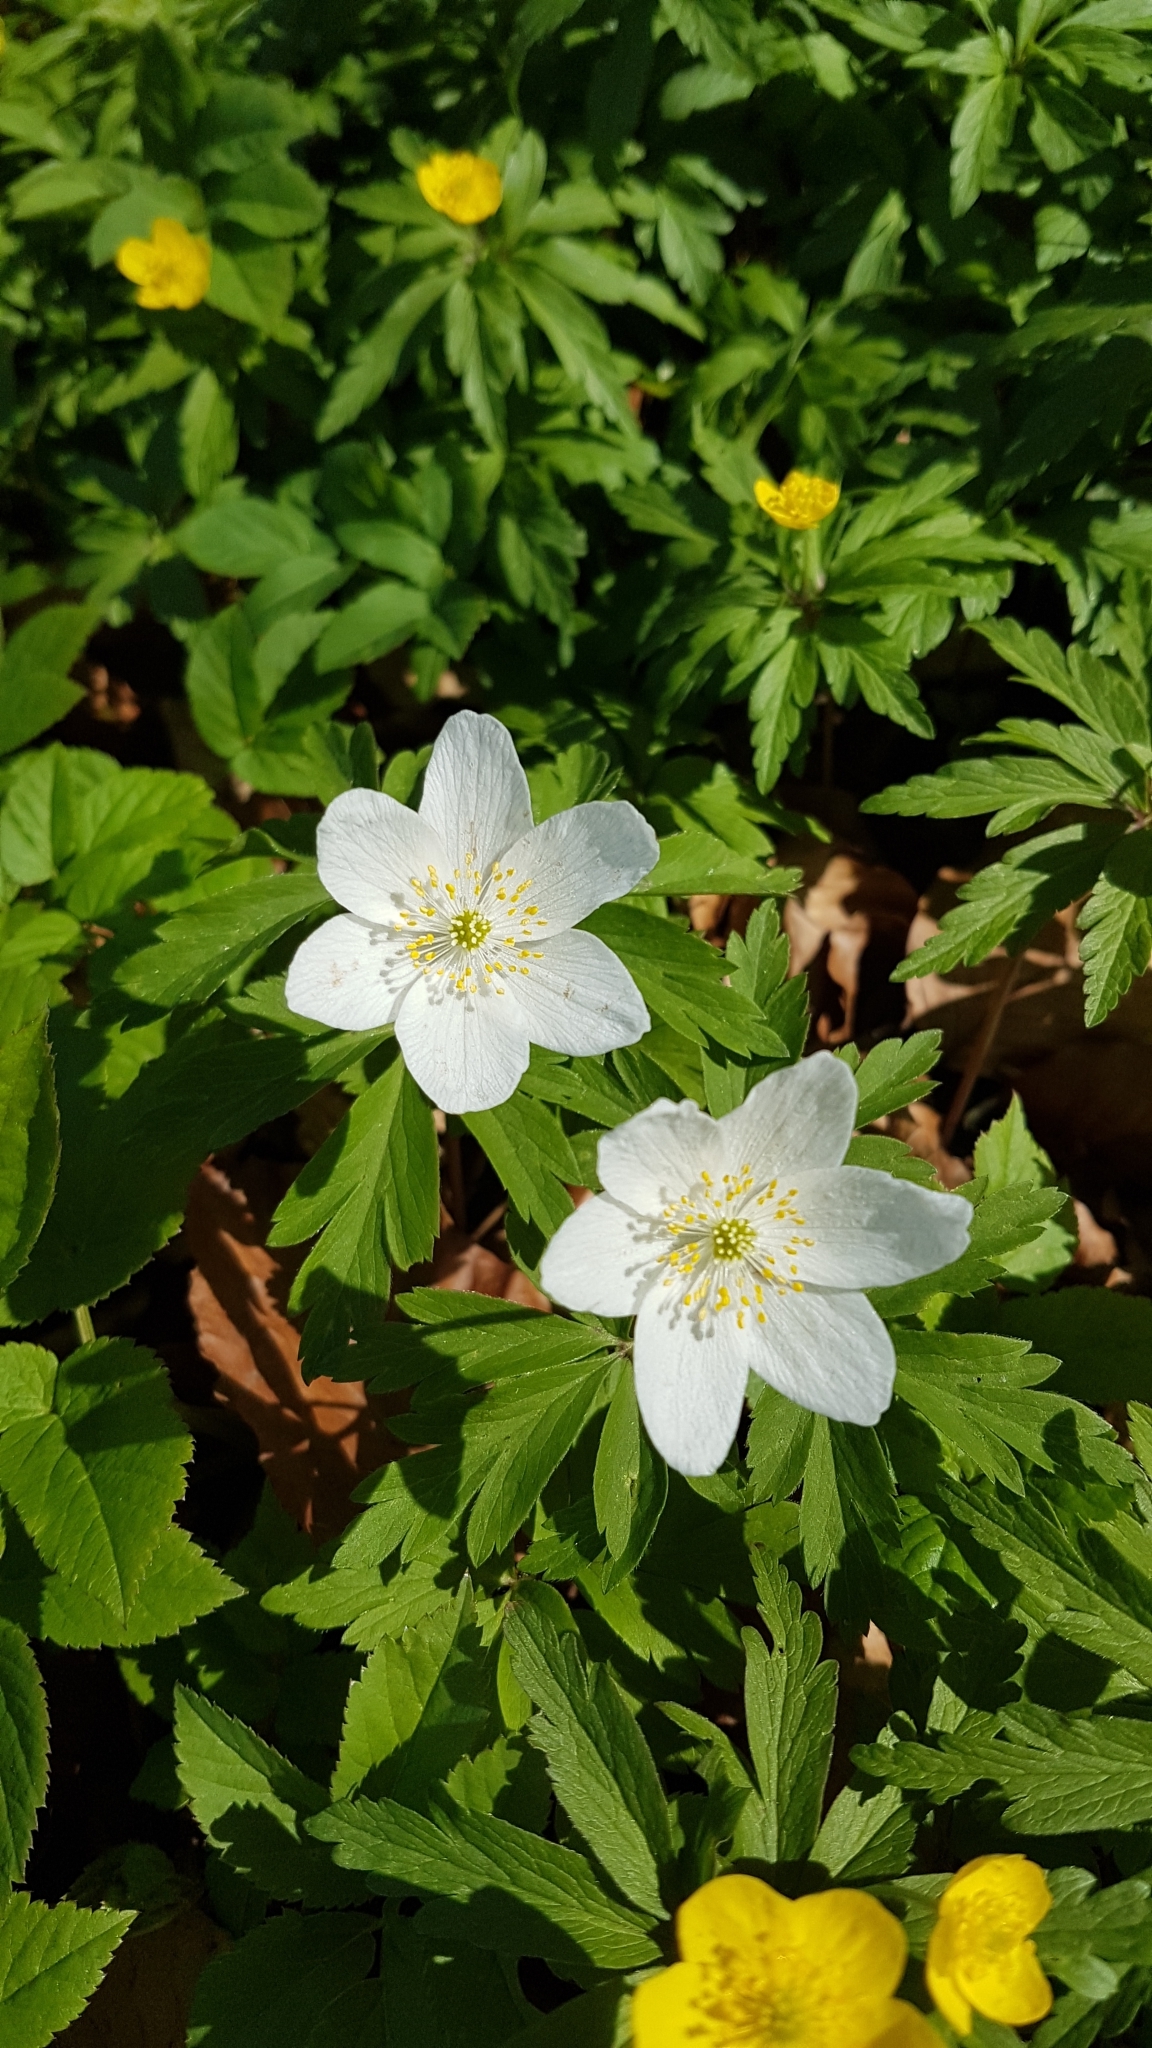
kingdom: Plantae
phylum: Tracheophyta
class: Magnoliopsida
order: Ranunculales
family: Ranunculaceae
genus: Anemone
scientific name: Anemone nemorosa
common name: Wood anemone
